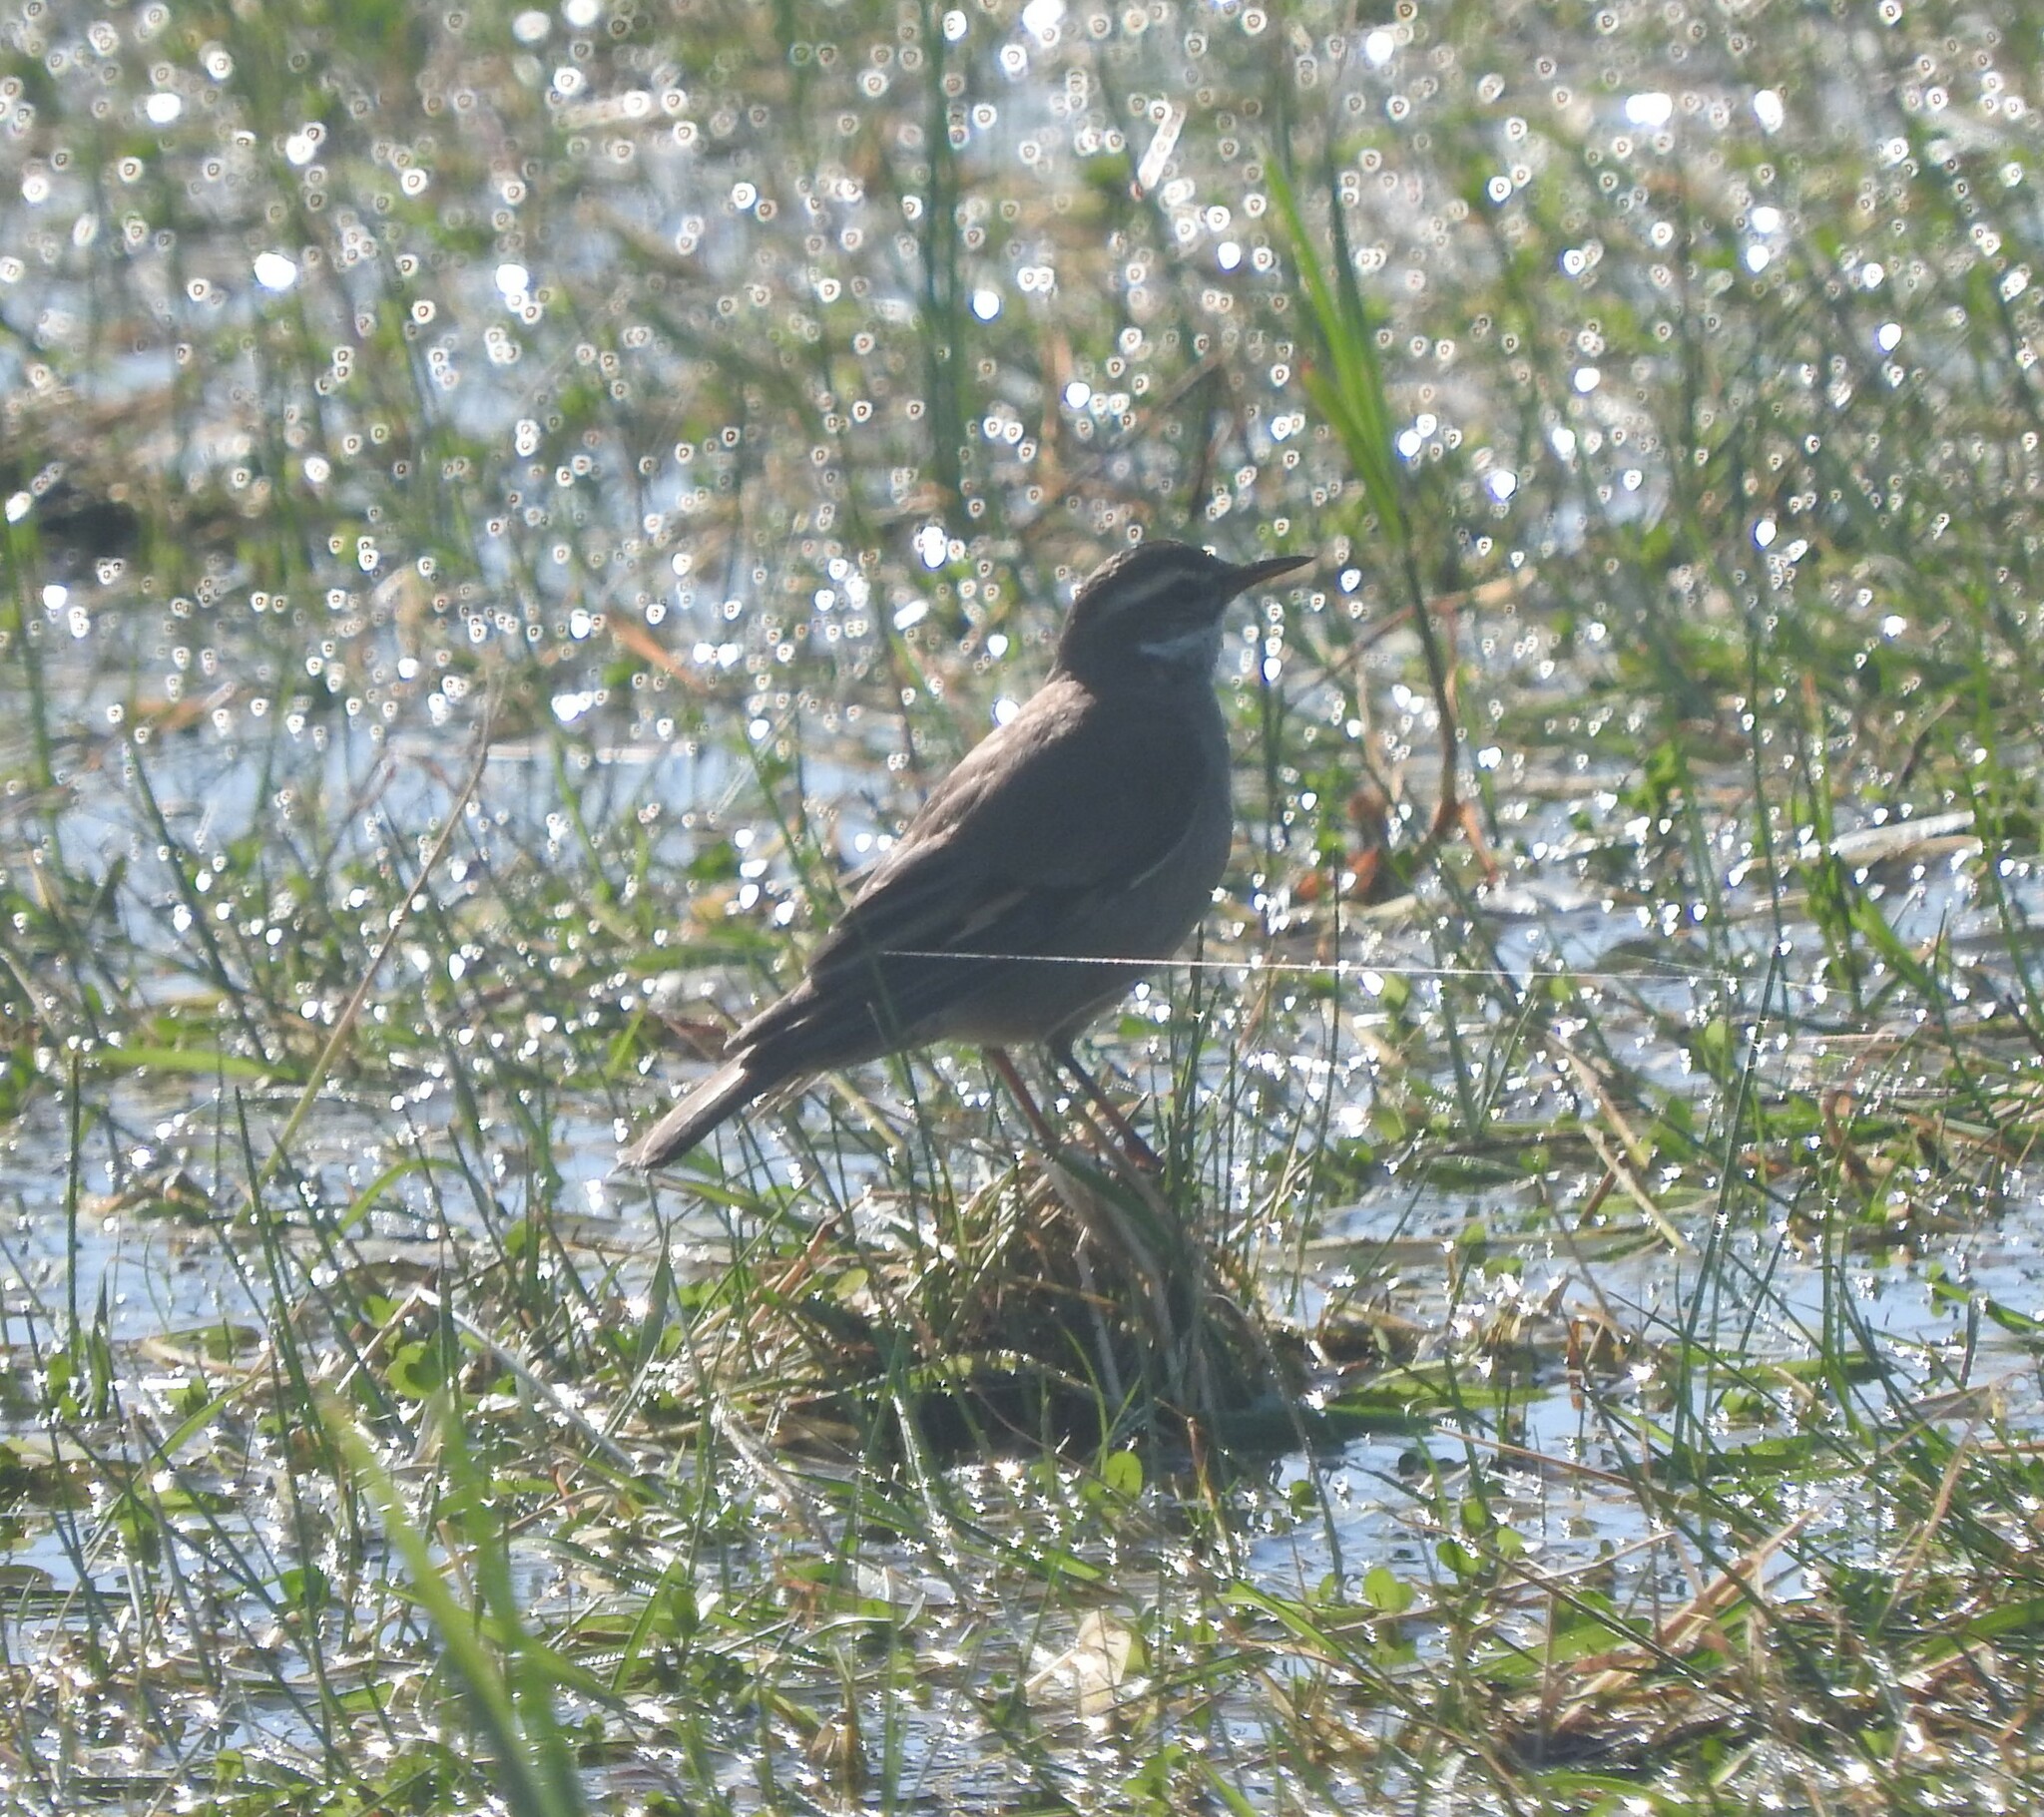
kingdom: Animalia
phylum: Chordata
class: Aves
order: Passeriformes
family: Furnariidae
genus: Cinclodes
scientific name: Cinclodes fuscus
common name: Buff-winged cinclodes
